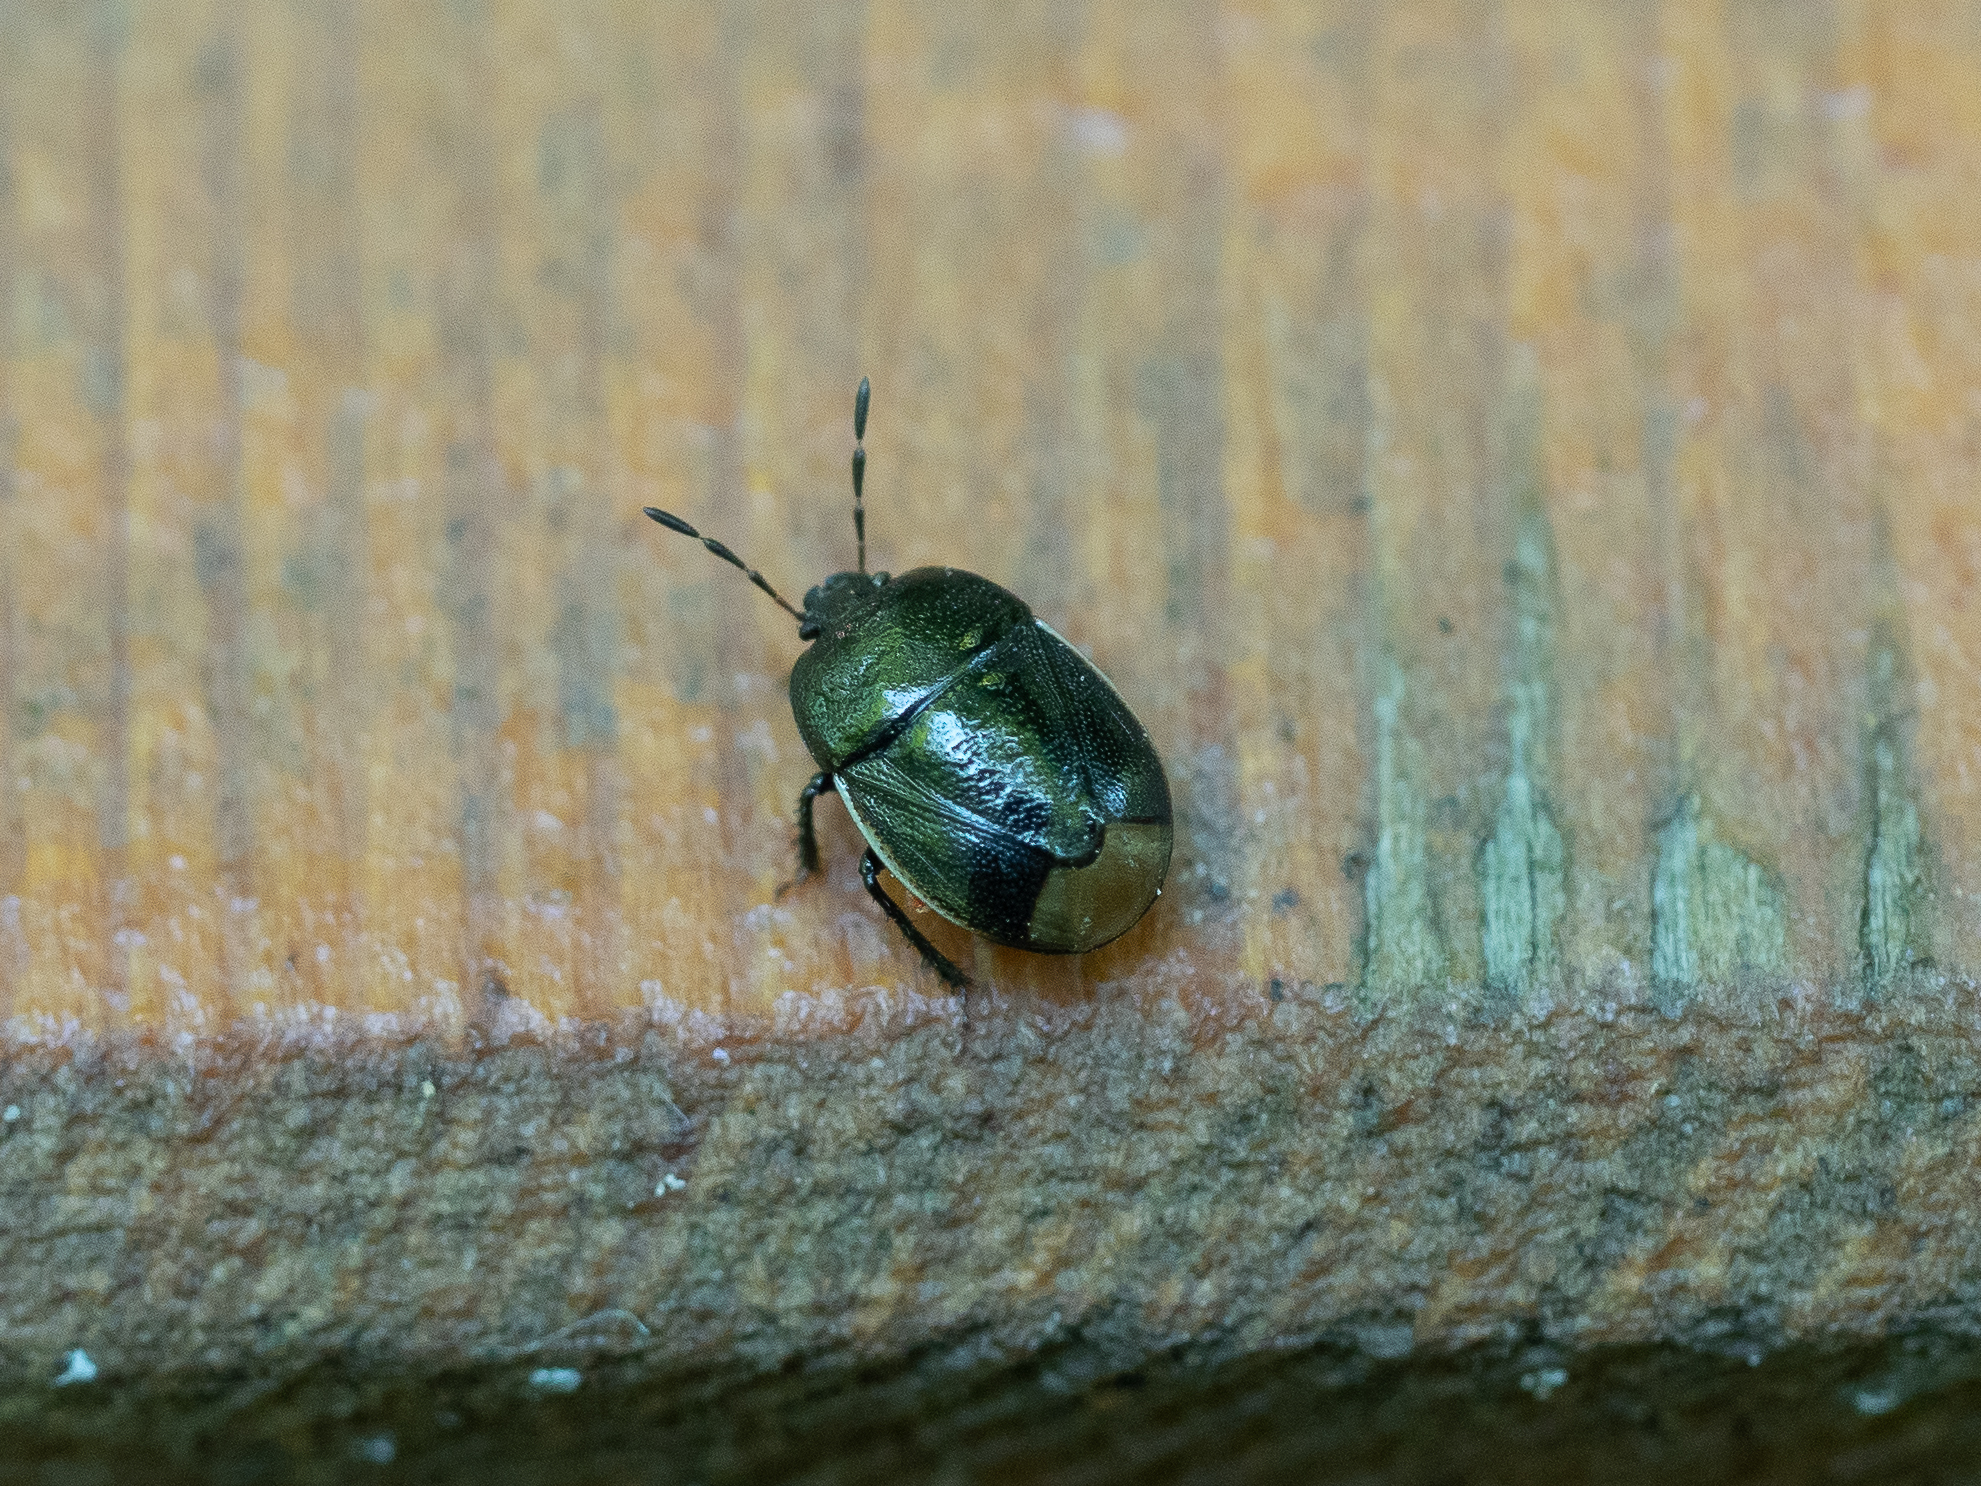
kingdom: Animalia
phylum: Arthropoda
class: Insecta
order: Hemiptera
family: Cydnidae
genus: Legnotus
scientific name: Legnotus limbosus
